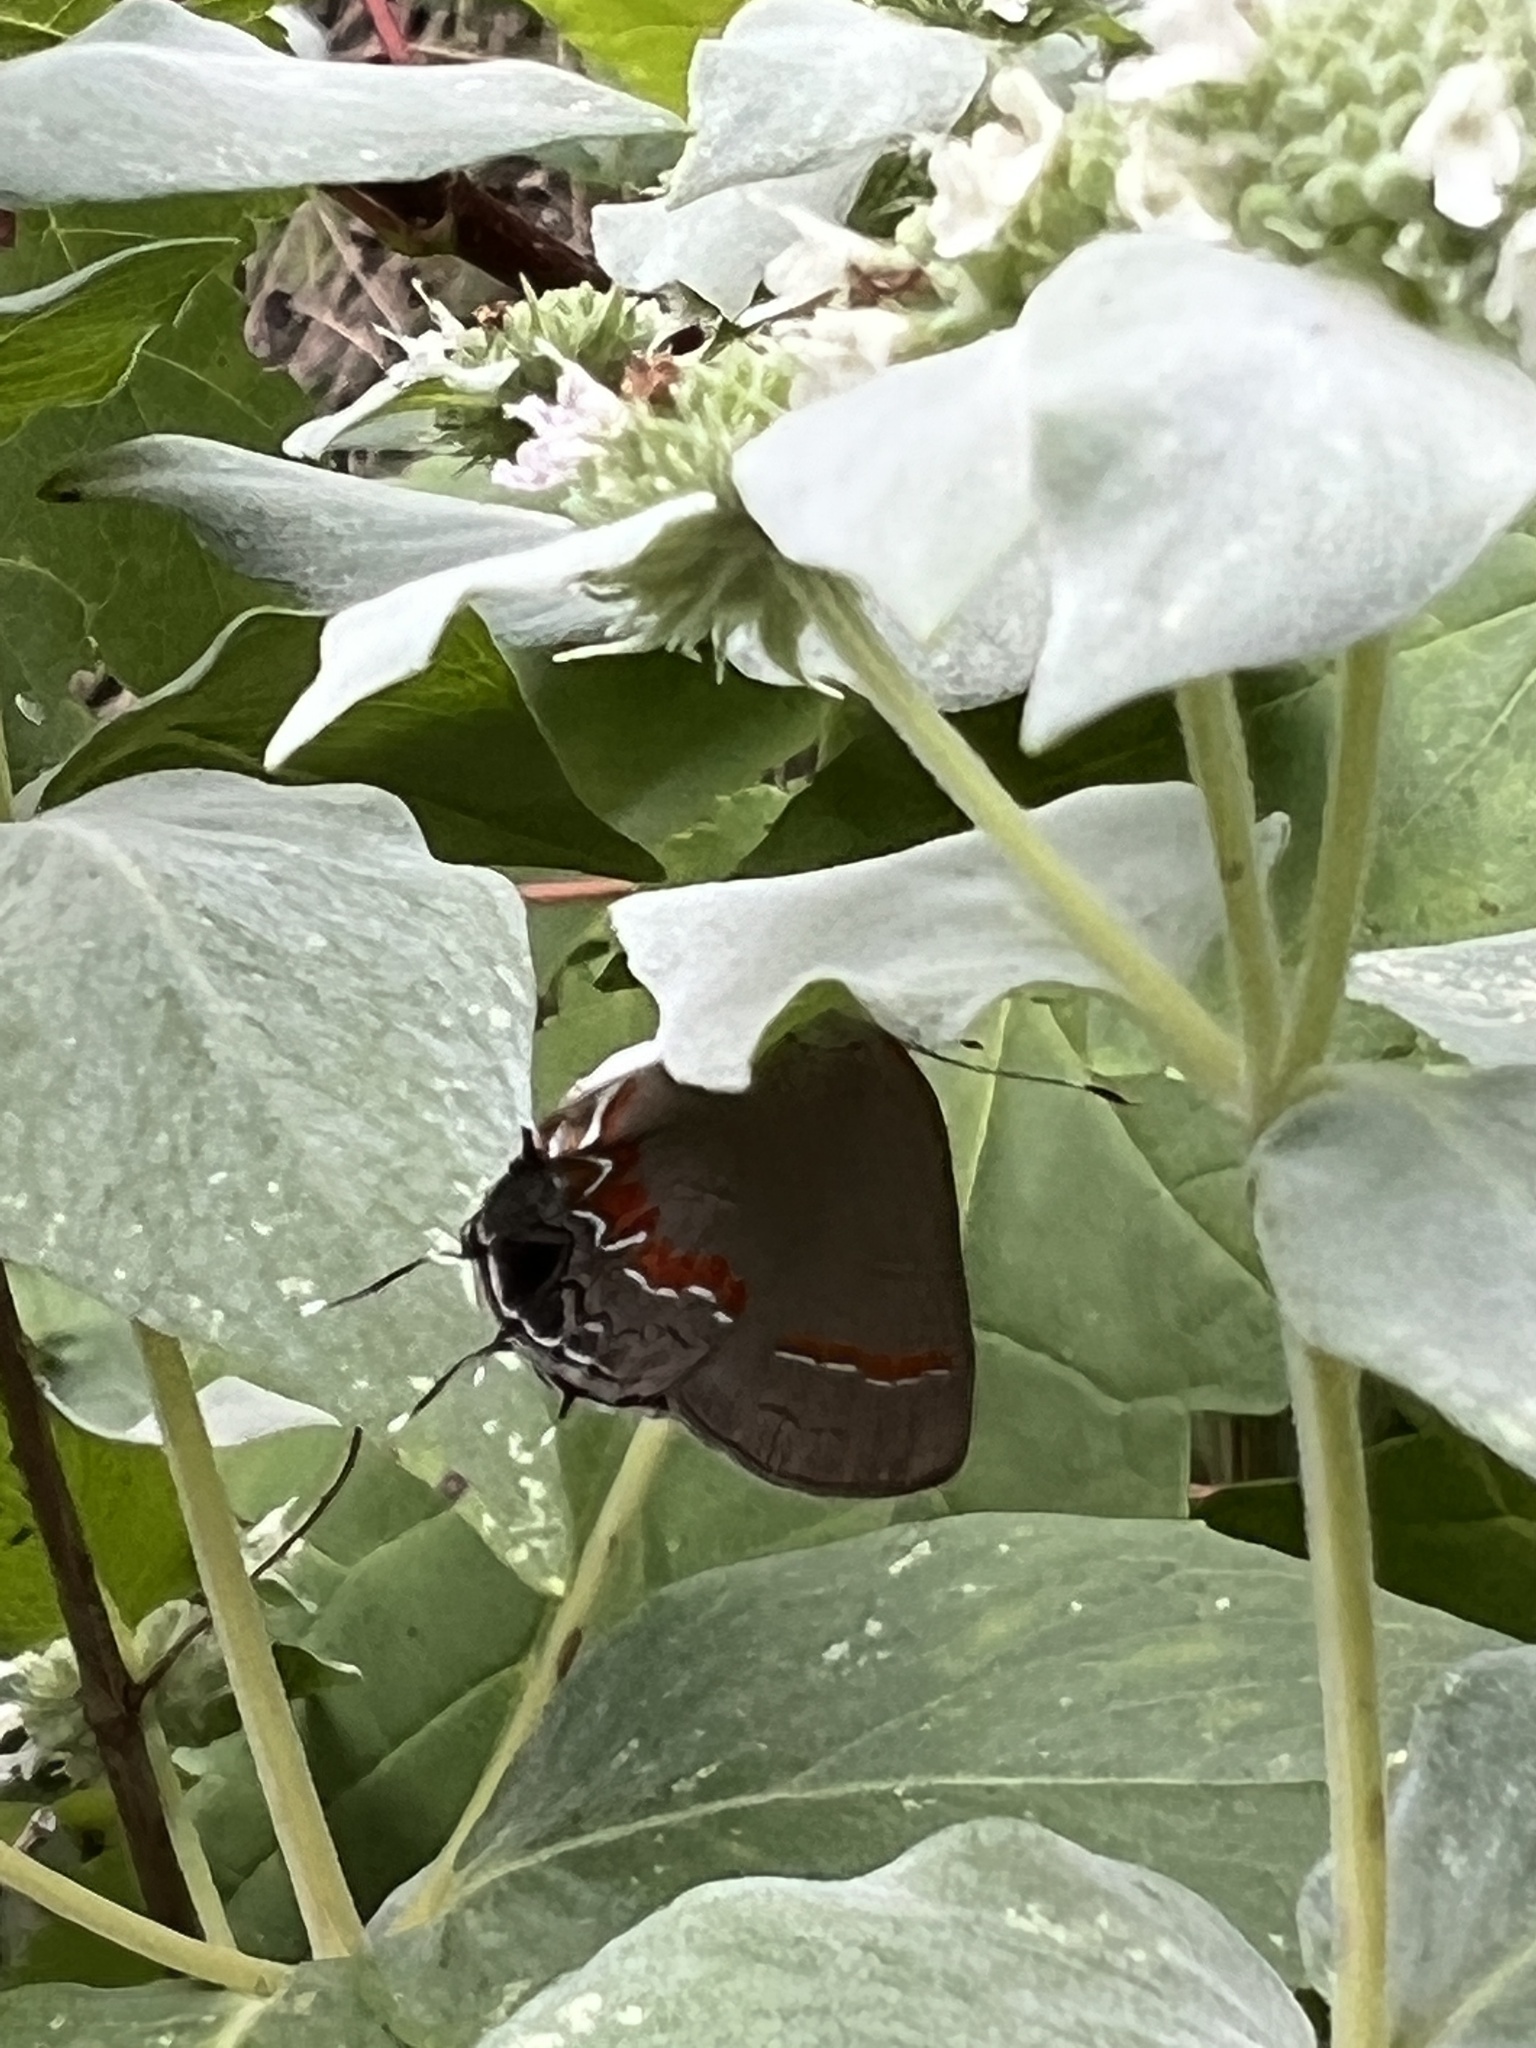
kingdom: Animalia
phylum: Arthropoda
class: Insecta
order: Lepidoptera
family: Lycaenidae
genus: Calycopis
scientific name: Calycopis cecrops
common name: Red-banded hairstreak
